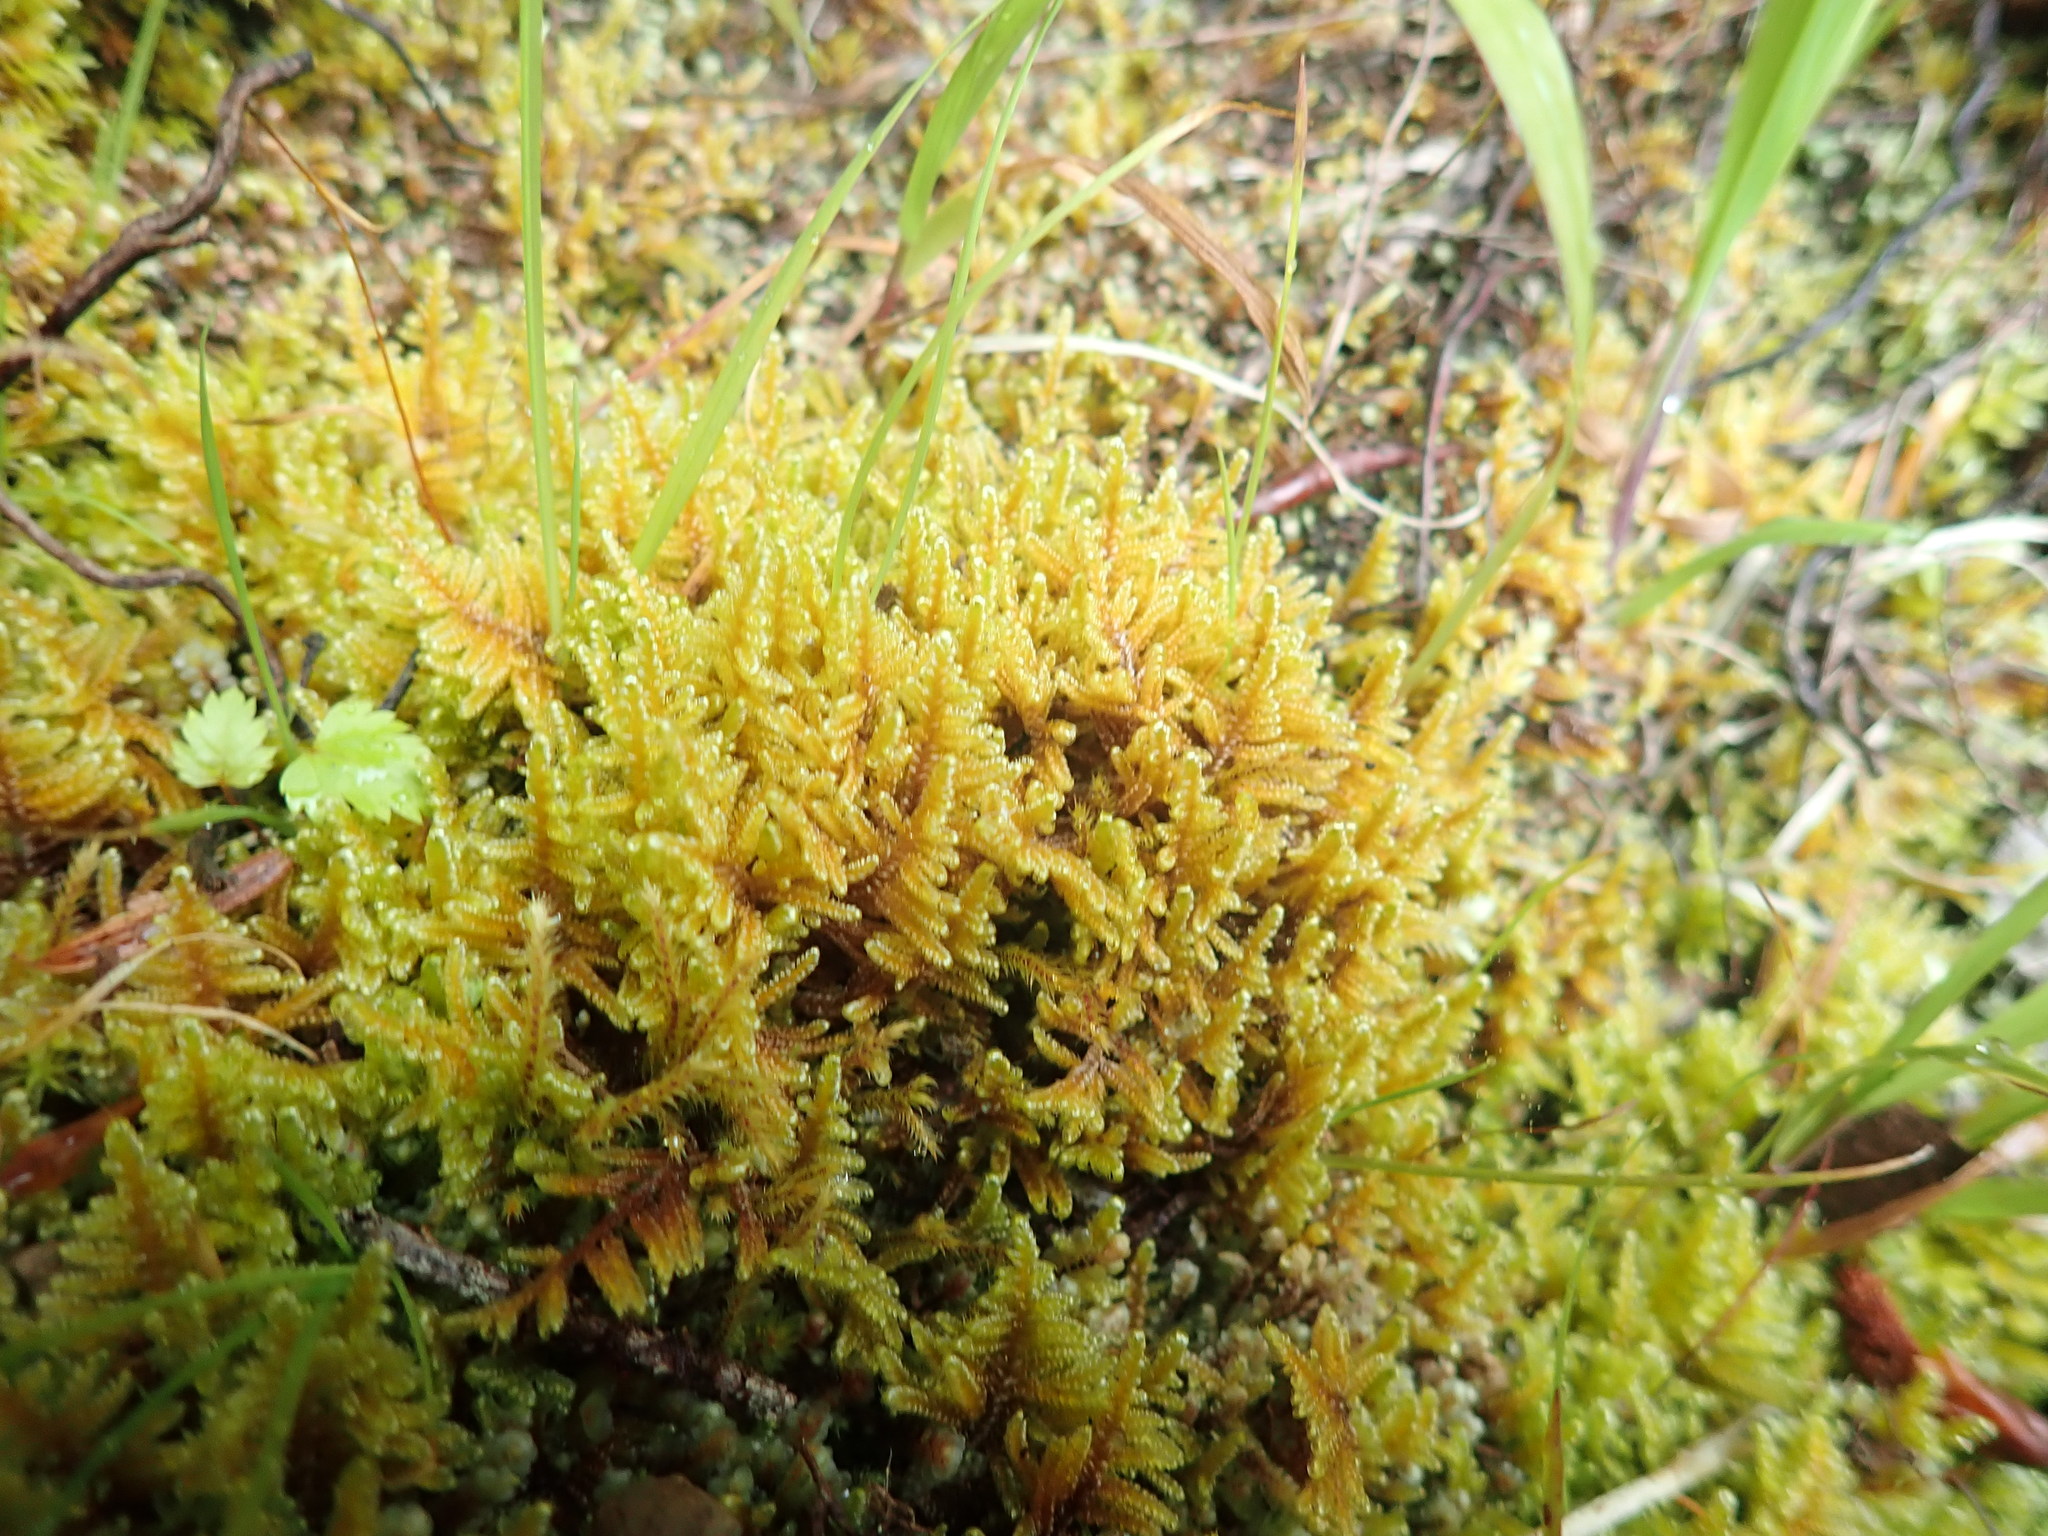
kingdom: Plantae
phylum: Bryophyta
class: Bryopsida
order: Hypnales
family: Pylaisiaceae
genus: Calliergonellopsis
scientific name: Calliergonellopsis dieckii
